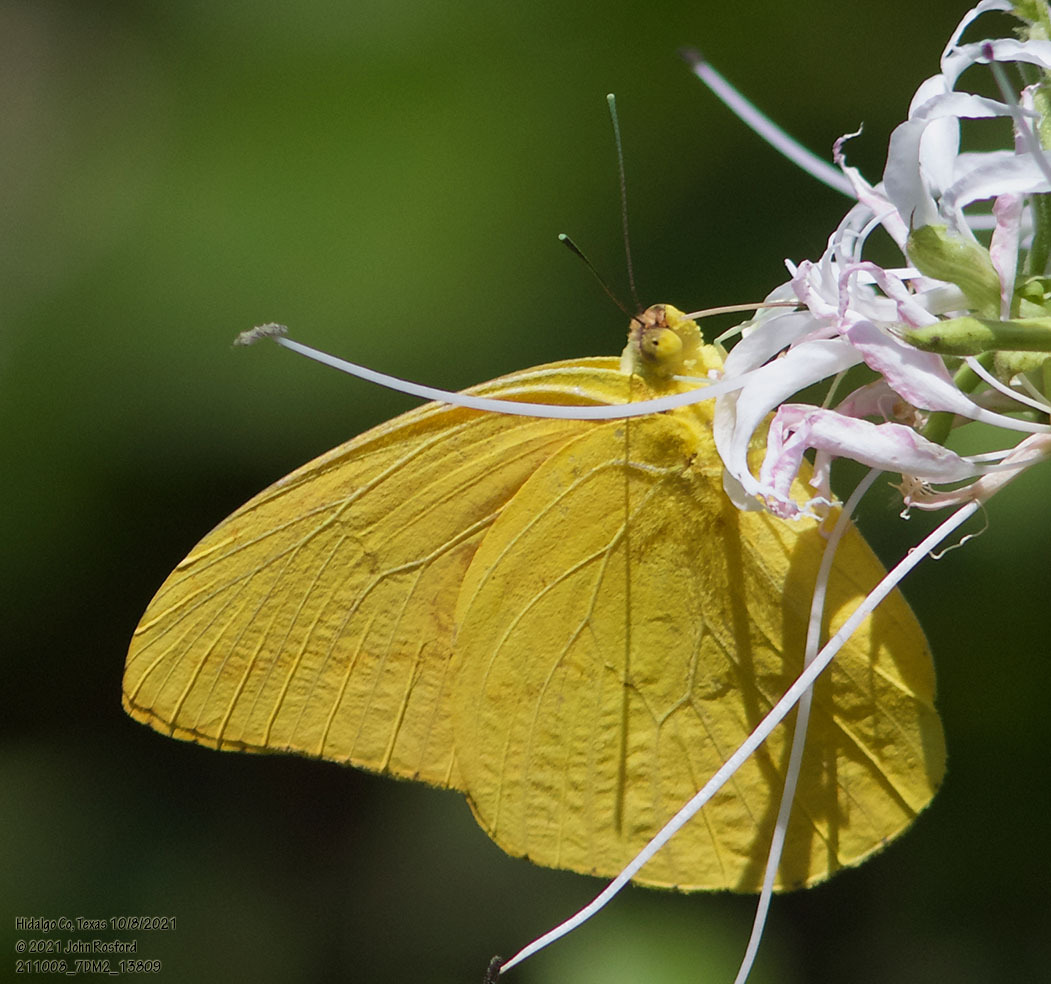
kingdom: Animalia
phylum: Arthropoda
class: Insecta
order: Lepidoptera
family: Pieridae
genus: Phoebis
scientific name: Phoebis agarithe
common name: Large orange sulphur
